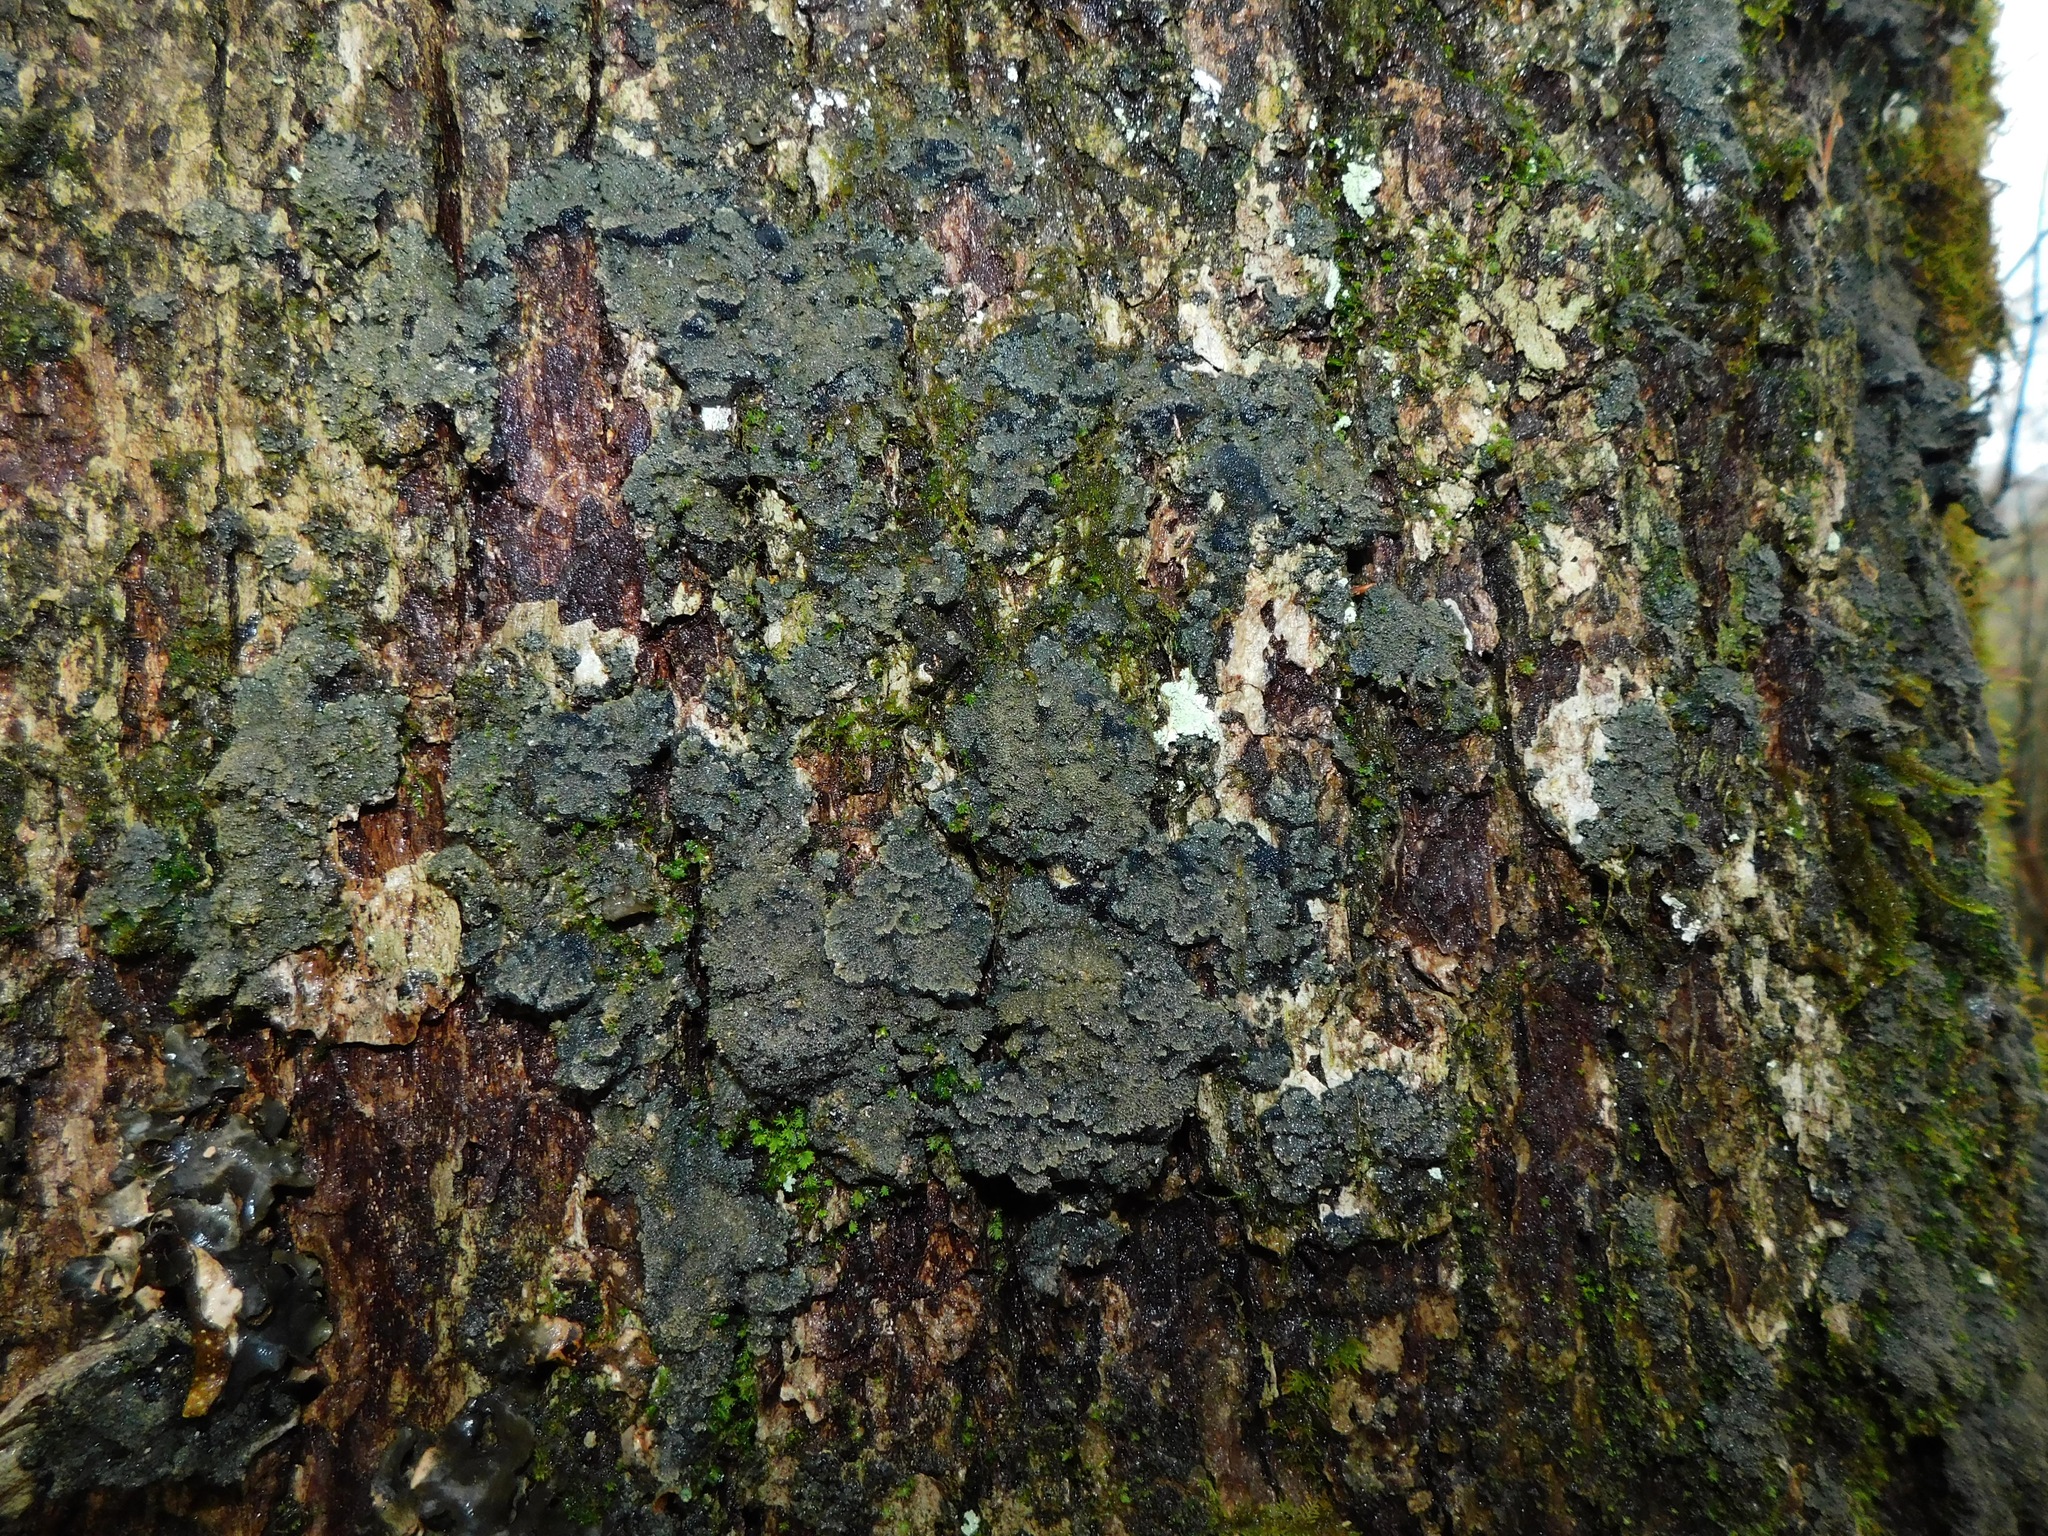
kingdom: Fungi
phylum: Ascomycota
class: Lecanoromycetes
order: Peltigerales
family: Pannariaceae
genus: Parmeliella
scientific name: Parmeliella thriptophylla
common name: Black-bordered shingle lichen
